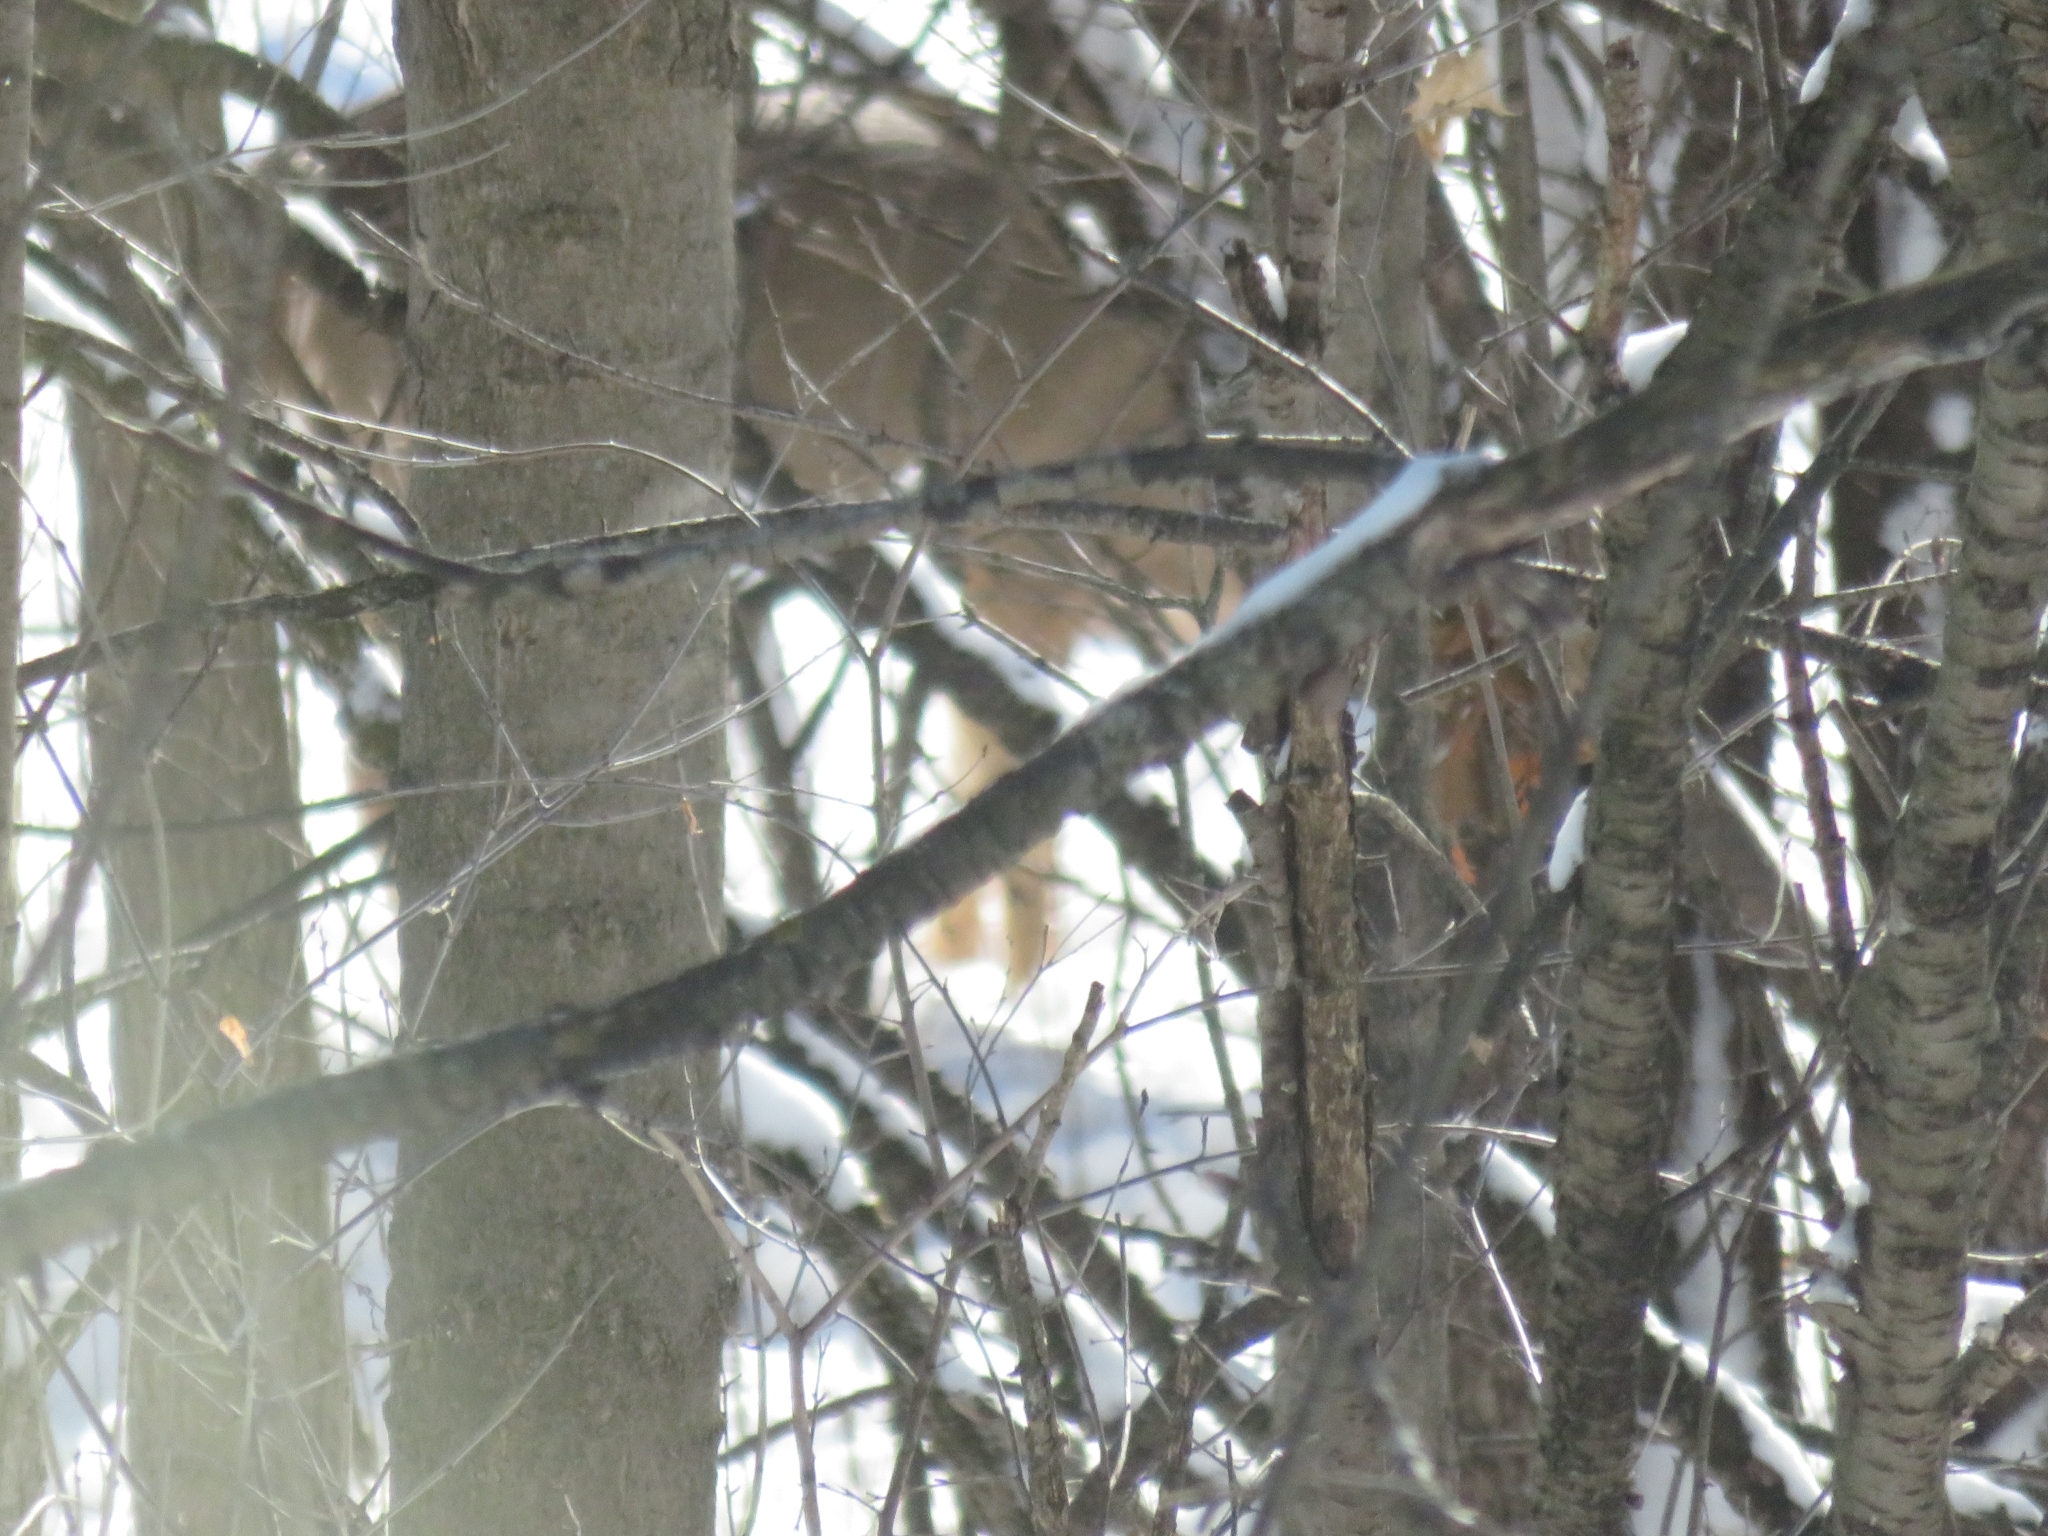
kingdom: Animalia
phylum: Chordata
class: Mammalia
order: Artiodactyla
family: Cervidae
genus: Odocoileus
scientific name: Odocoileus virginianus
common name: White-tailed deer
